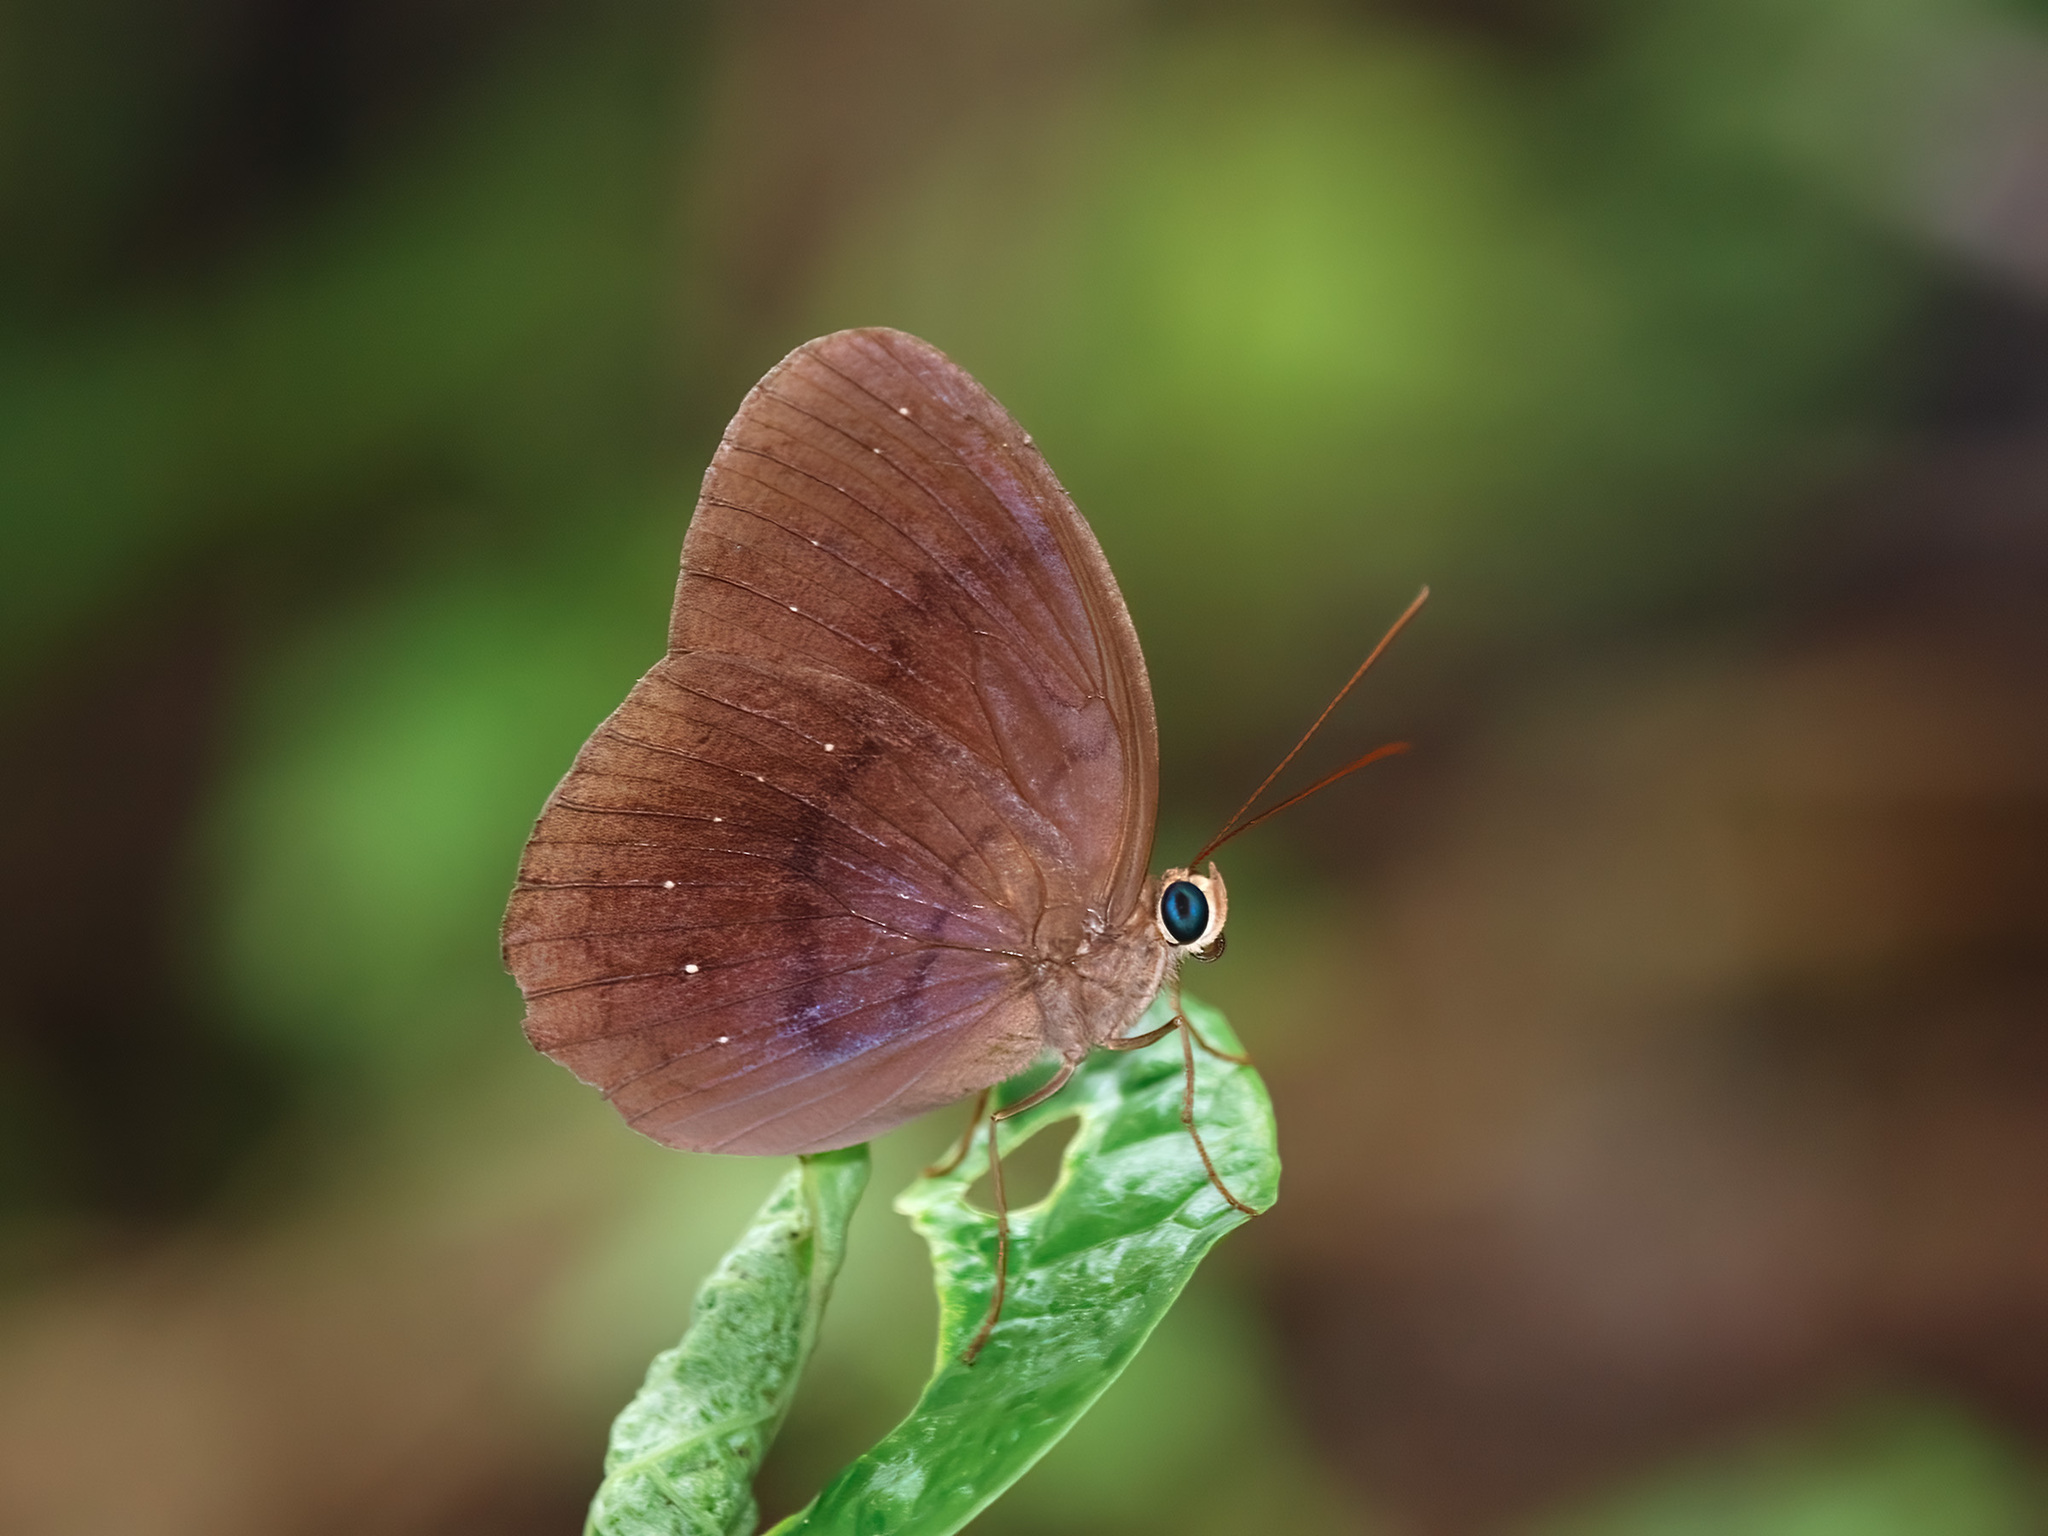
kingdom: Animalia
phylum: Arthropoda
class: Insecta
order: Lepidoptera
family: Nymphalidae
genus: Faunis
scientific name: Faunis canens
